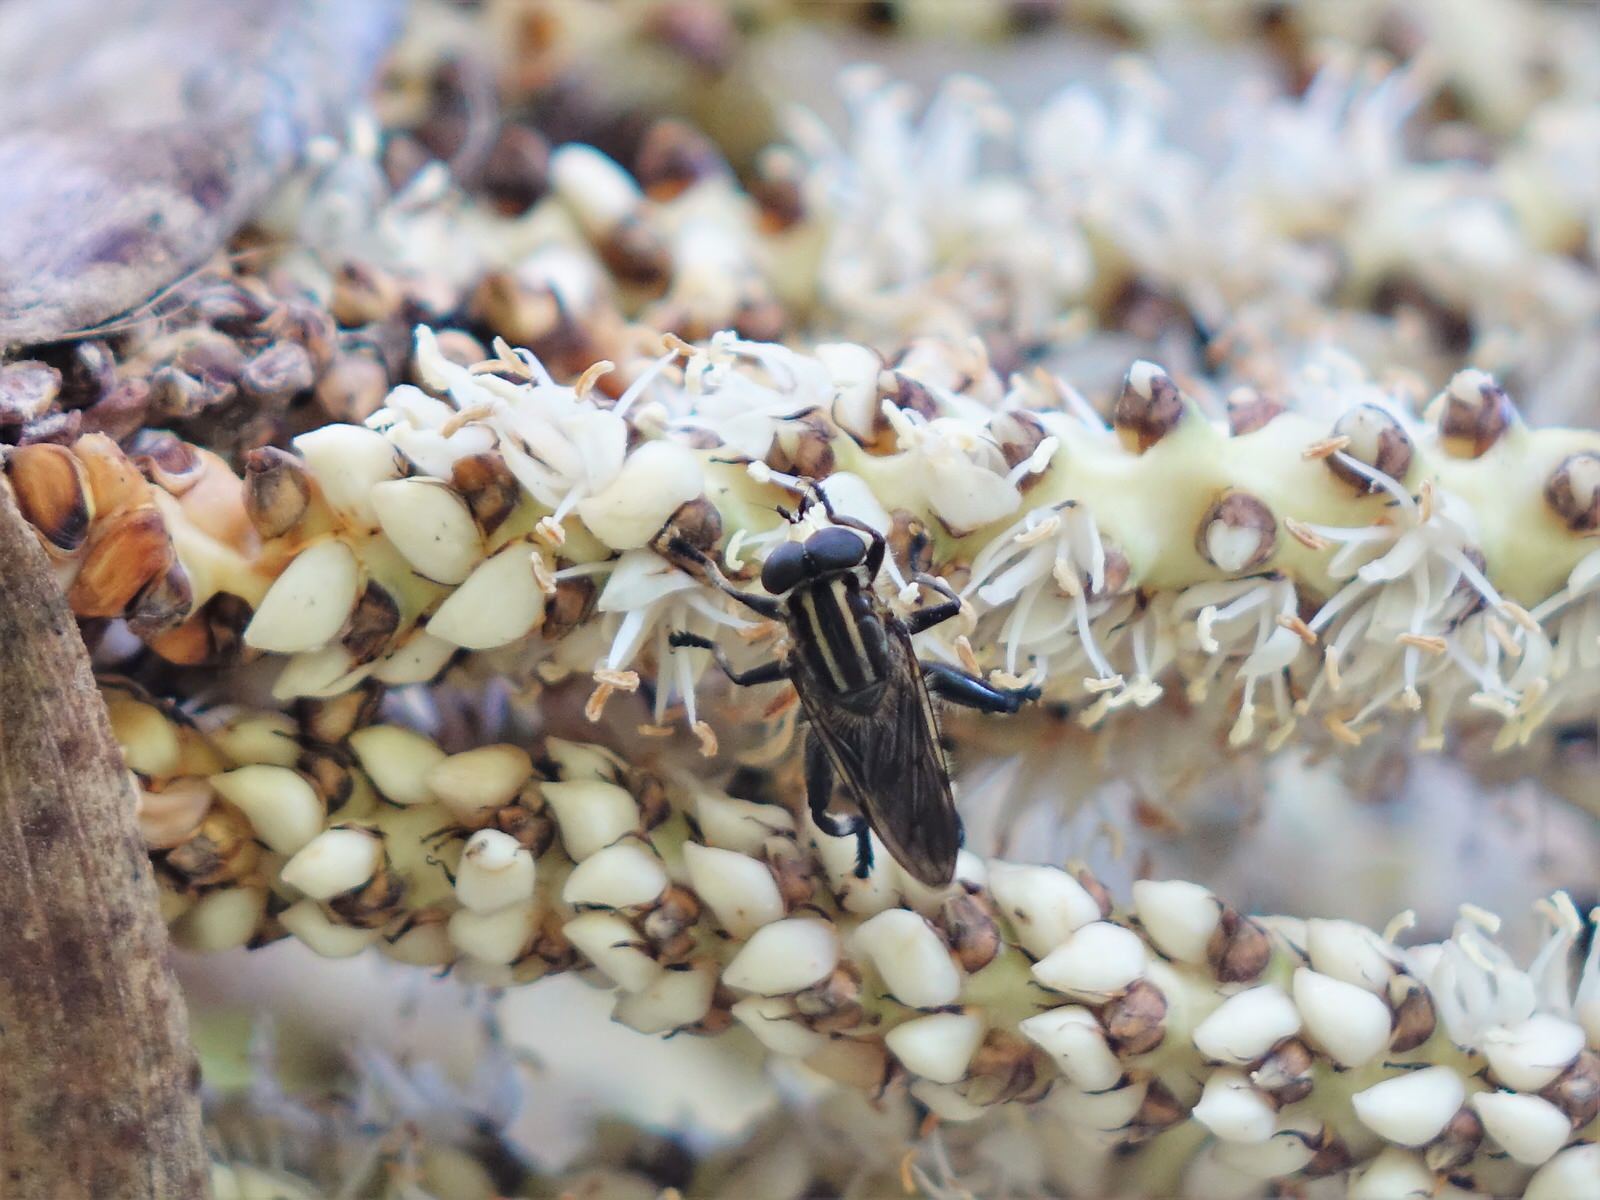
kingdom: Animalia
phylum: Arthropoda
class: Insecta
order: Diptera
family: Syrphidae
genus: Orthoprosopa
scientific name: Orthoprosopa bilineata
